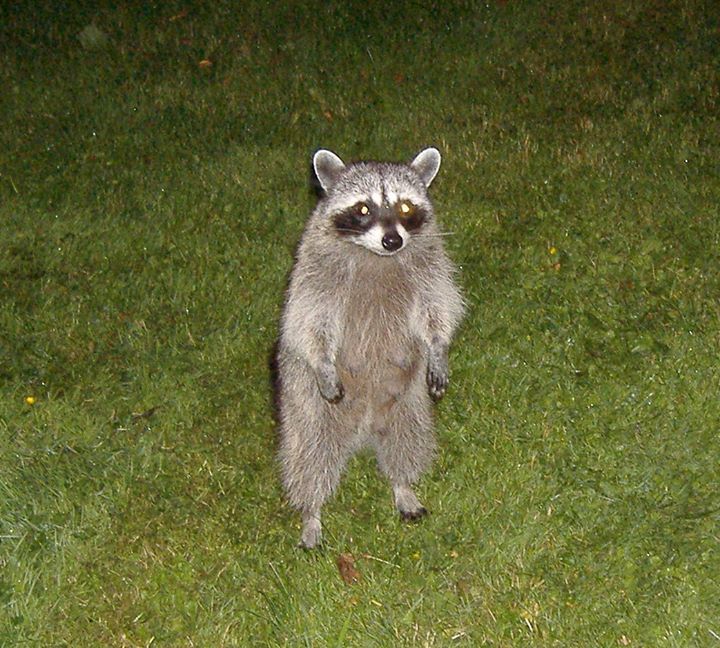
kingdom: Animalia
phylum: Chordata
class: Mammalia
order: Carnivora
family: Procyonidae
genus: Procyon
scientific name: Procyon lotor
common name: Raccoon
